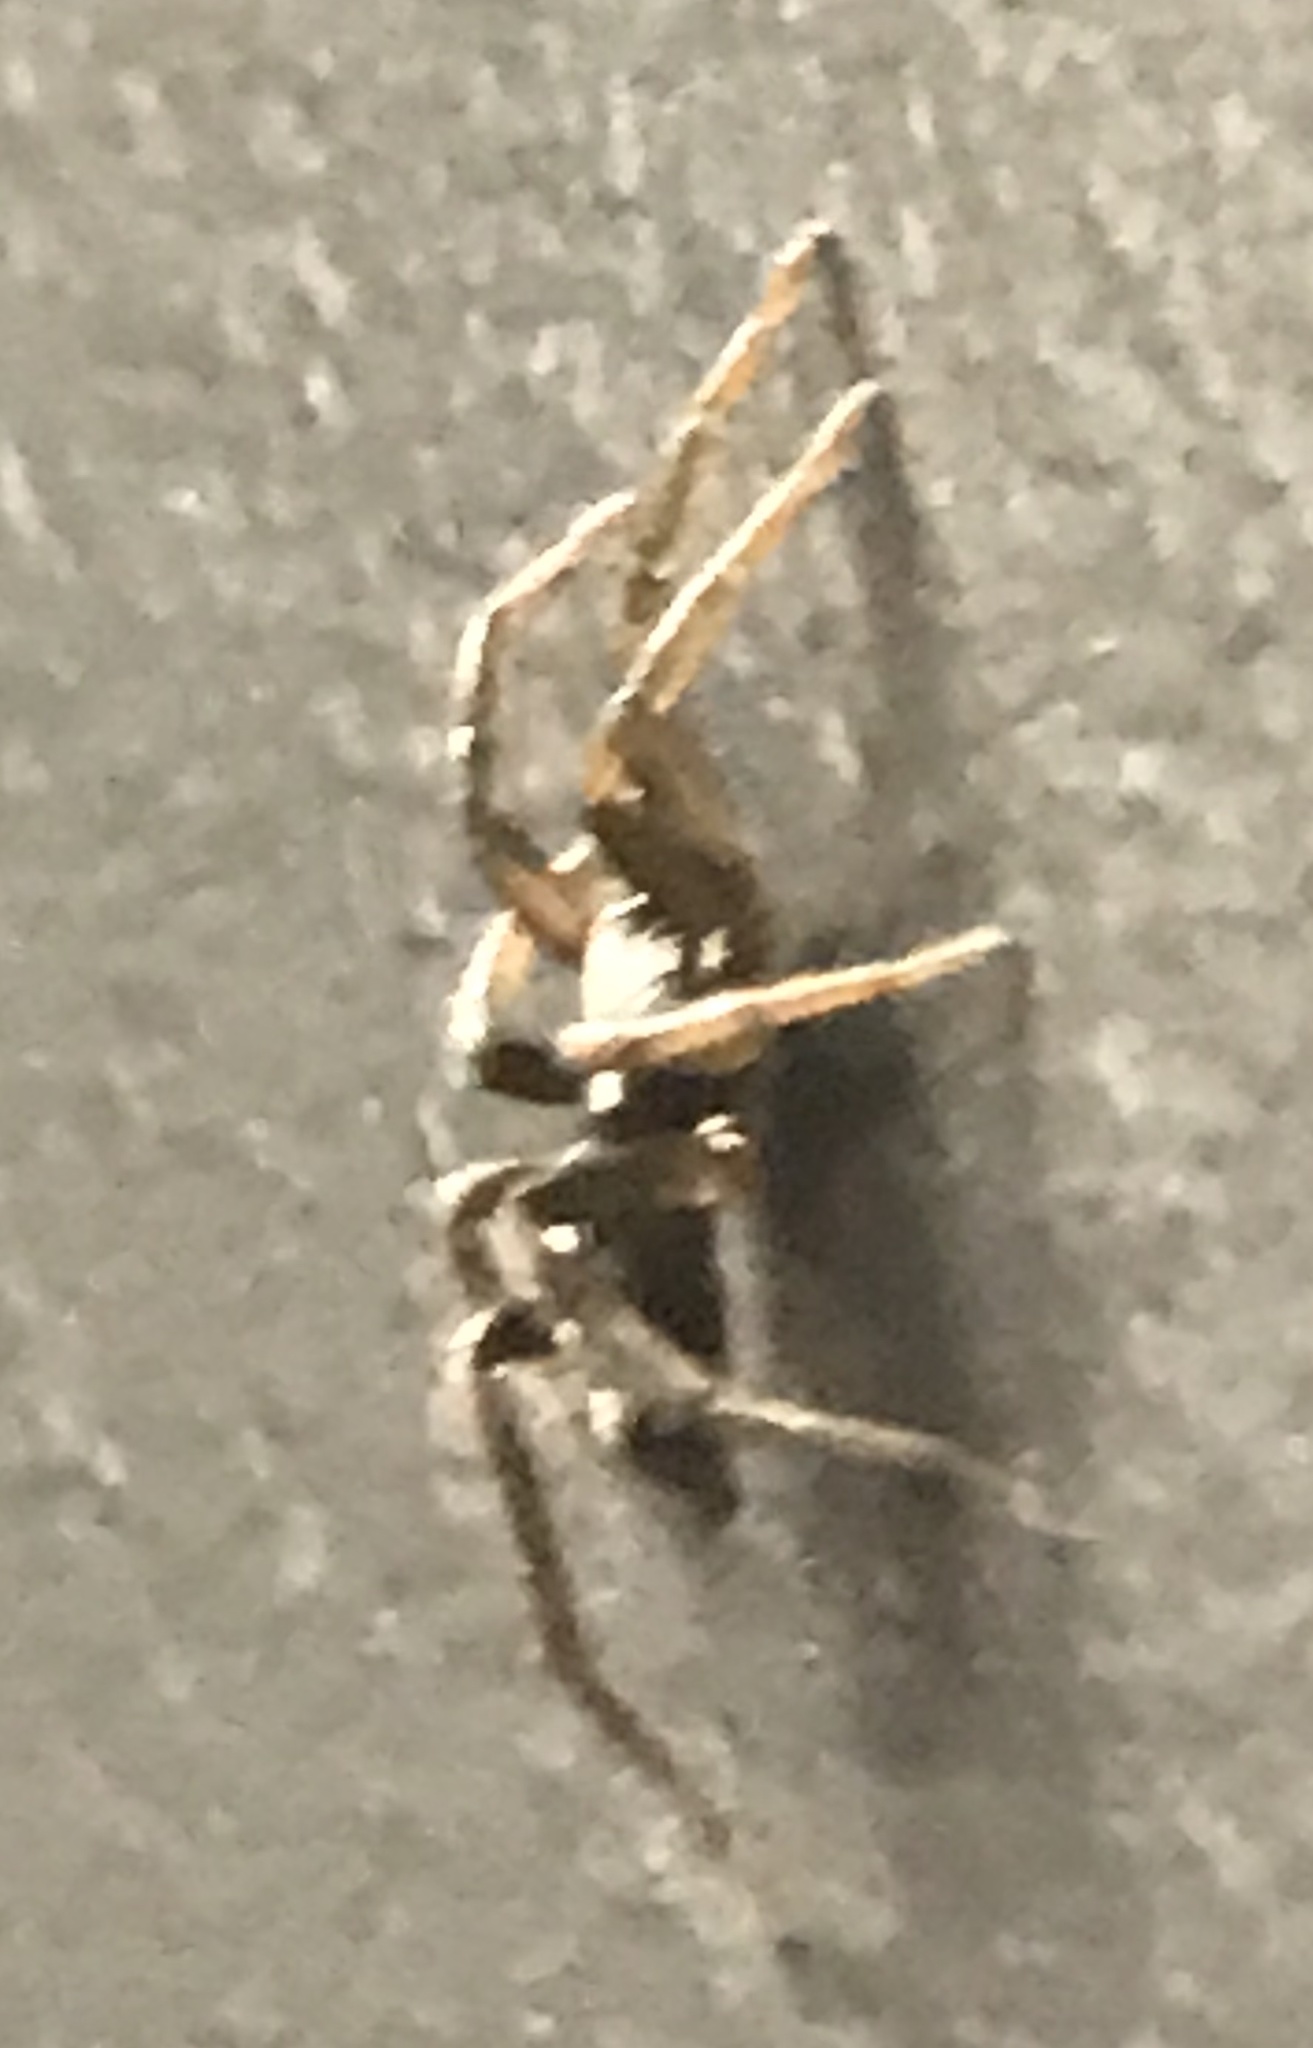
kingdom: Animalia
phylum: Arthropoda
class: Arachnida
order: Araneae
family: Gnaphosidae
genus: Herpyllus
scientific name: Herpyllus ecclesiasticus
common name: Eastern parson spider
